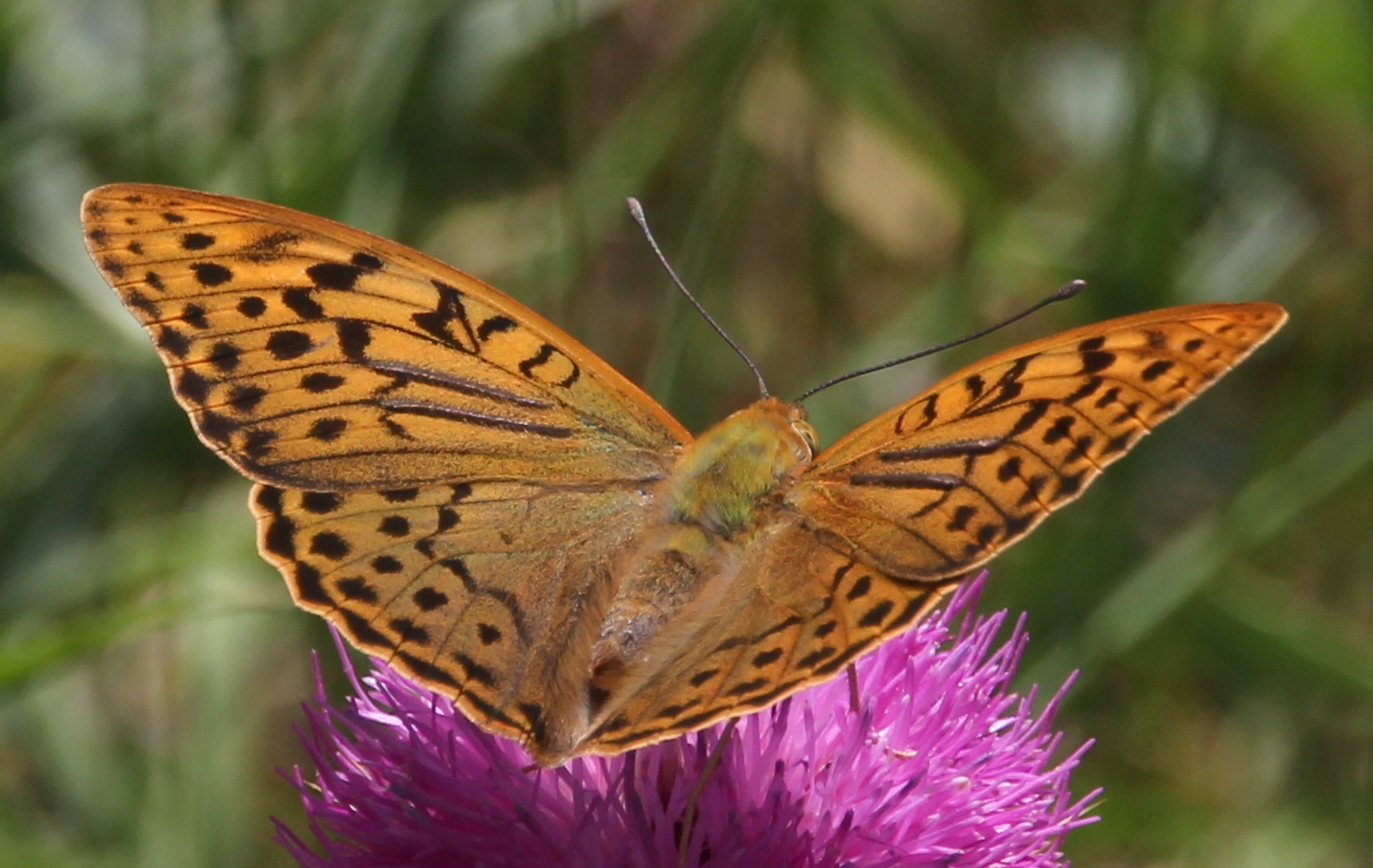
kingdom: Animalia
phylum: Arthropoda
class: Insecta
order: Lepidoptera
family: Nymphalidae
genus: Damora
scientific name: Damora pandora
